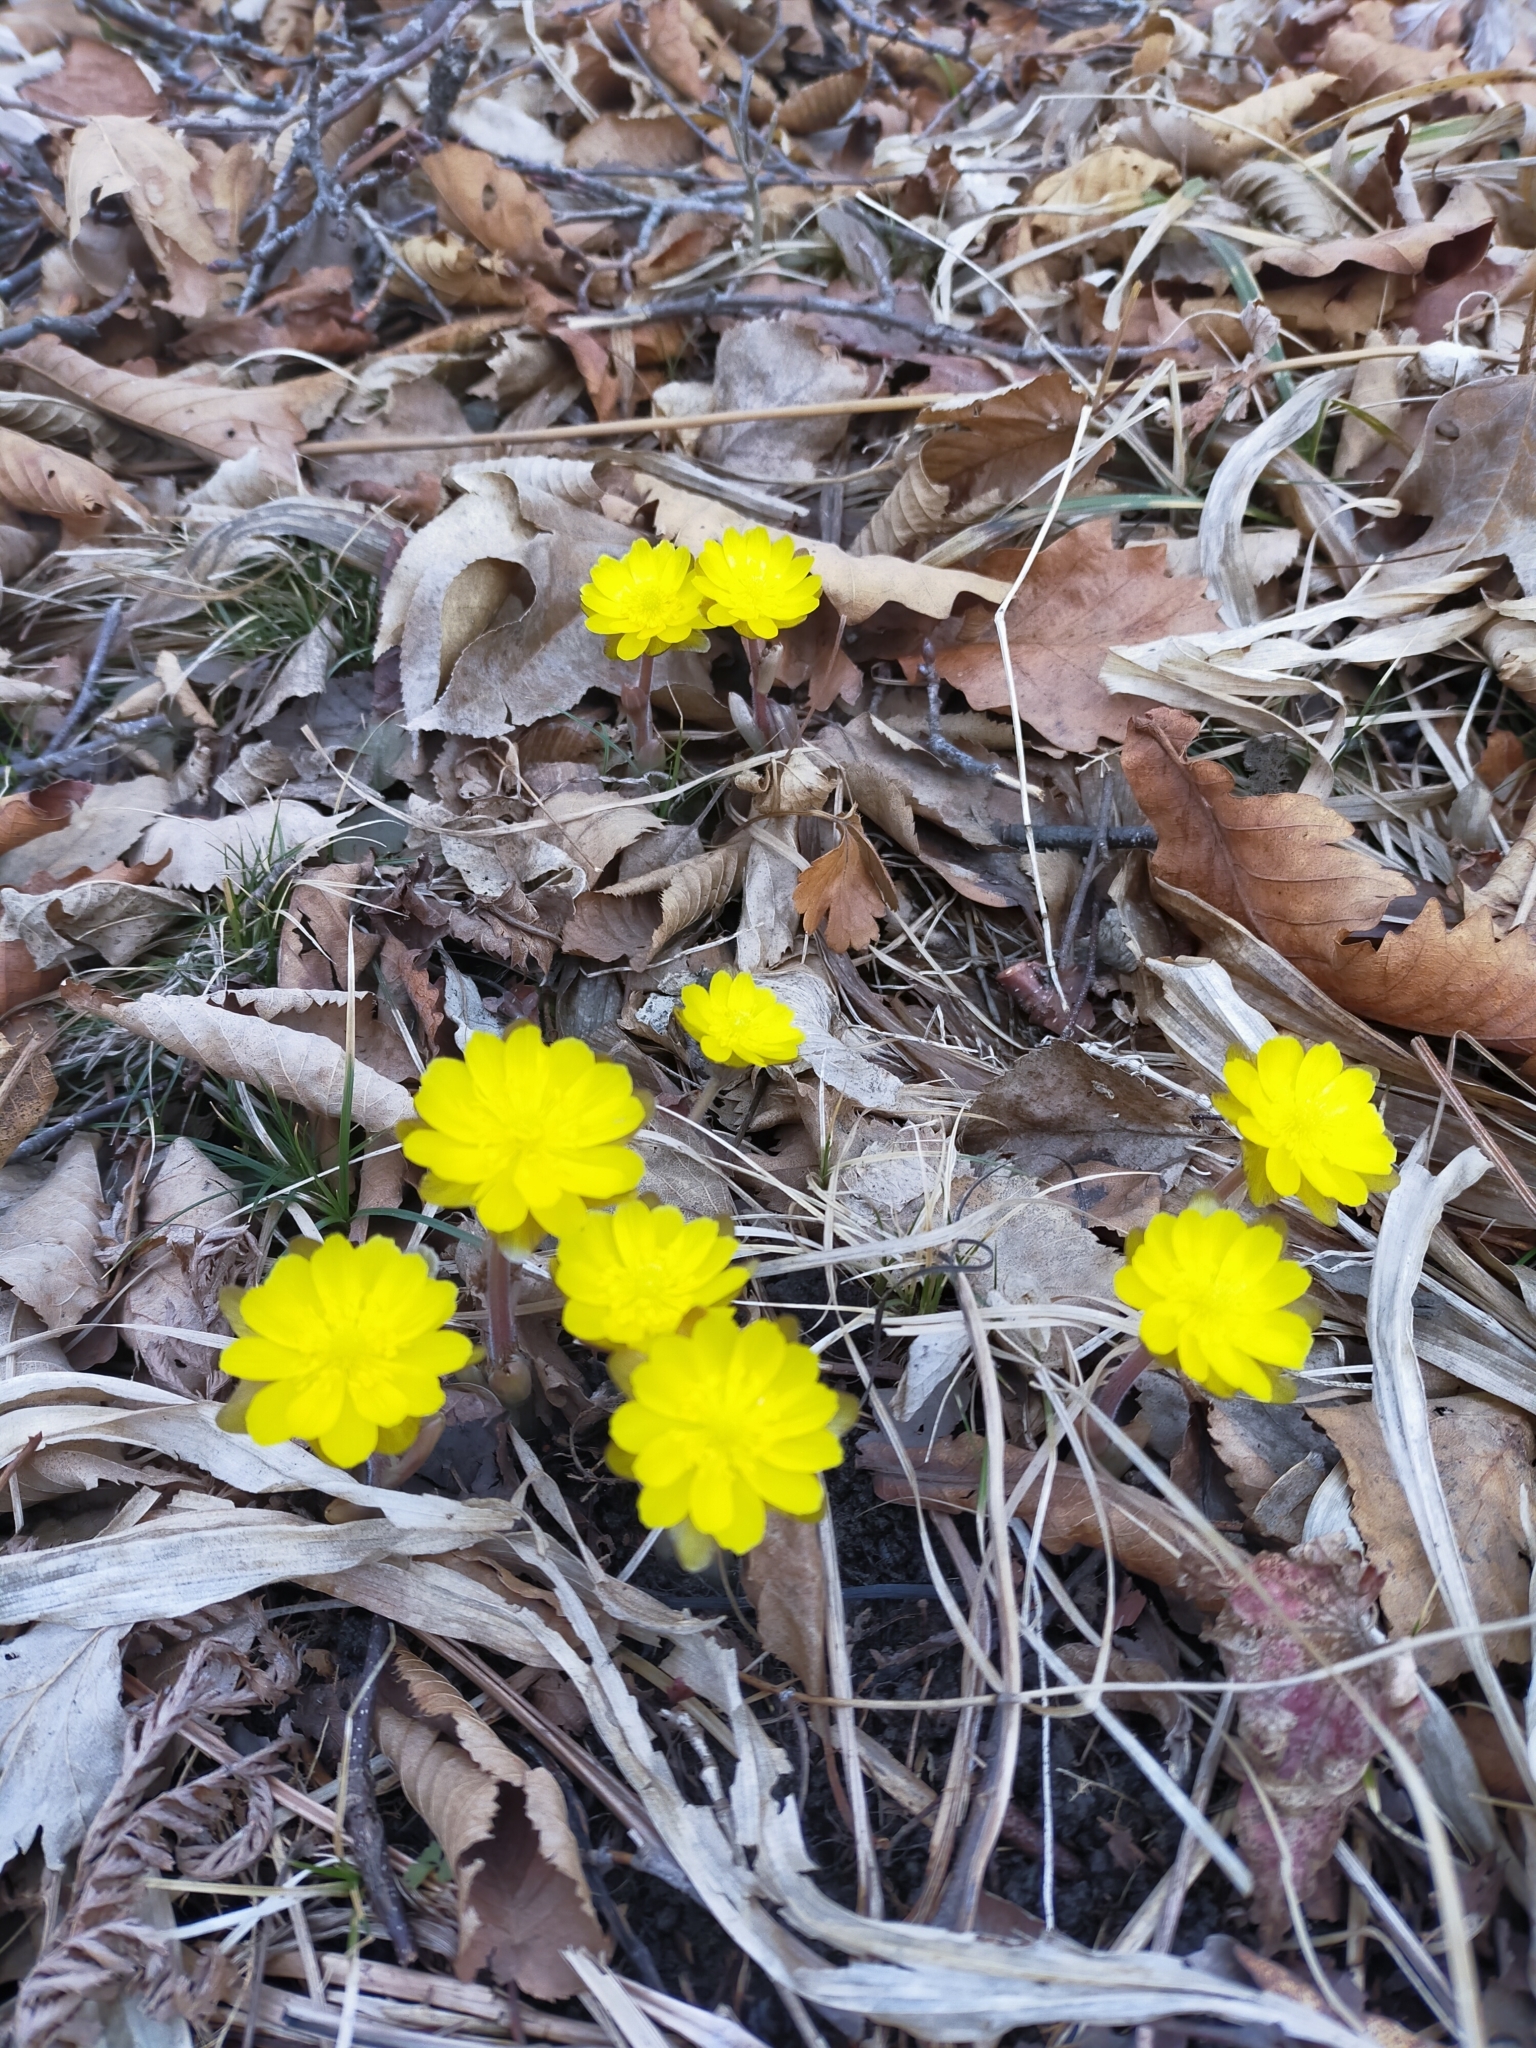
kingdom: Plantae
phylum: Tracheophyta
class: Magnoliopsida
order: Ranunculales
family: Ranunculaceae
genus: Adonis
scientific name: Adonis amurensis
